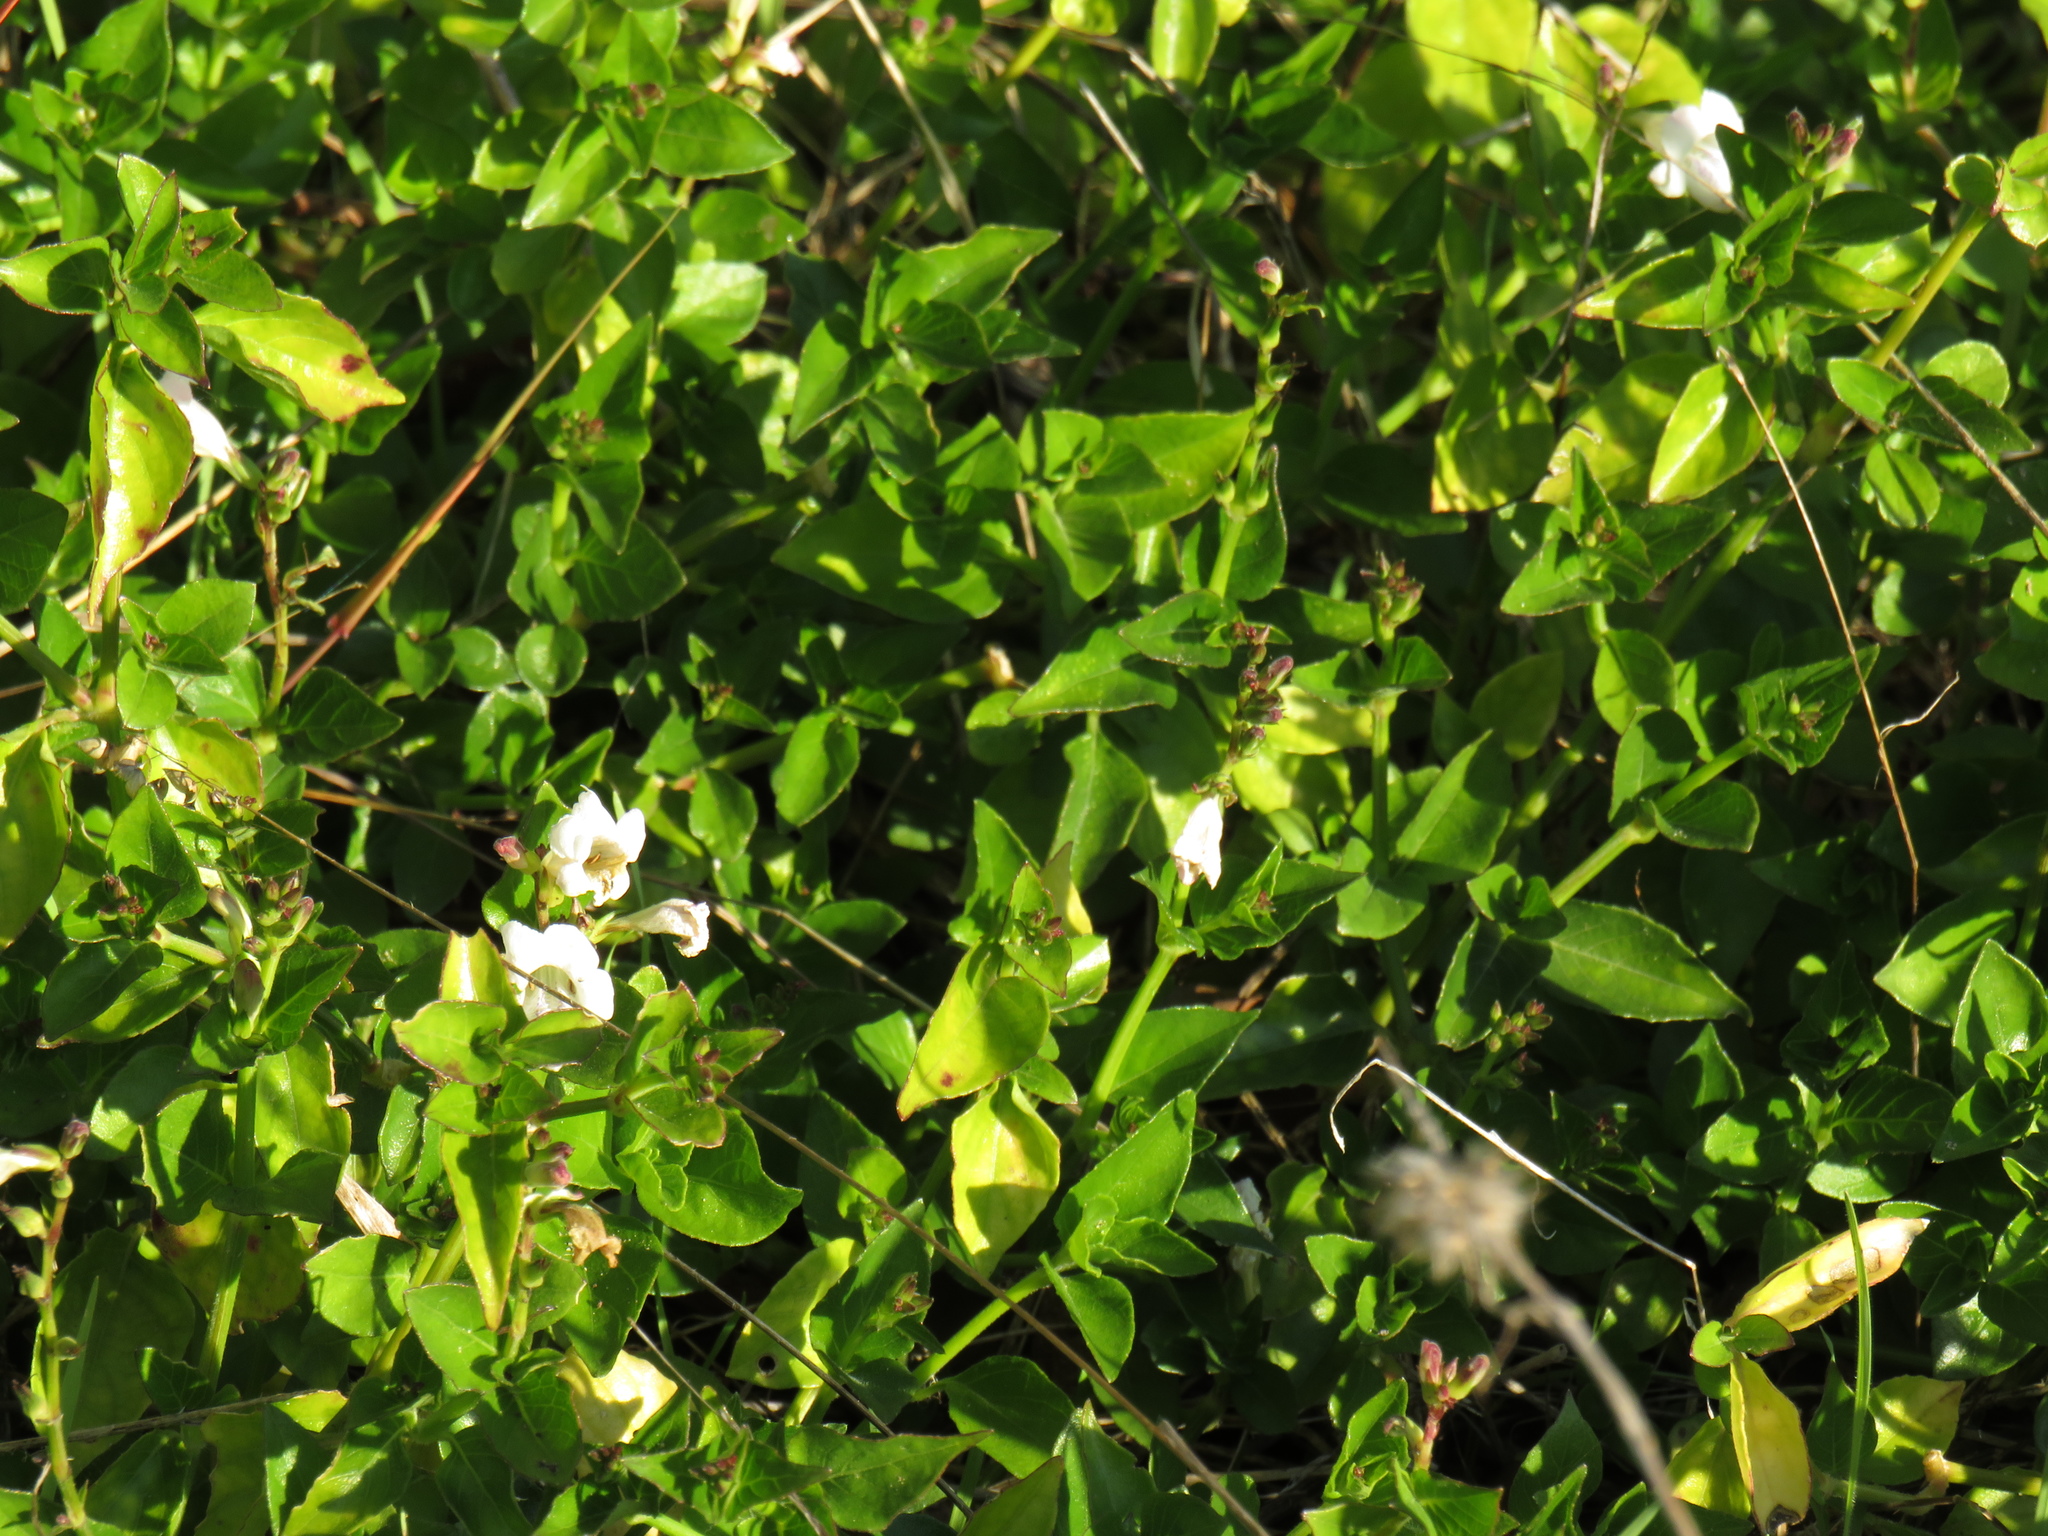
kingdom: Plantae
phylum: Tracheophyta
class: Magnoliopsida
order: Lamiales
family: Acanthaceae
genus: Asystasia
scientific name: Asystasia intrusa
